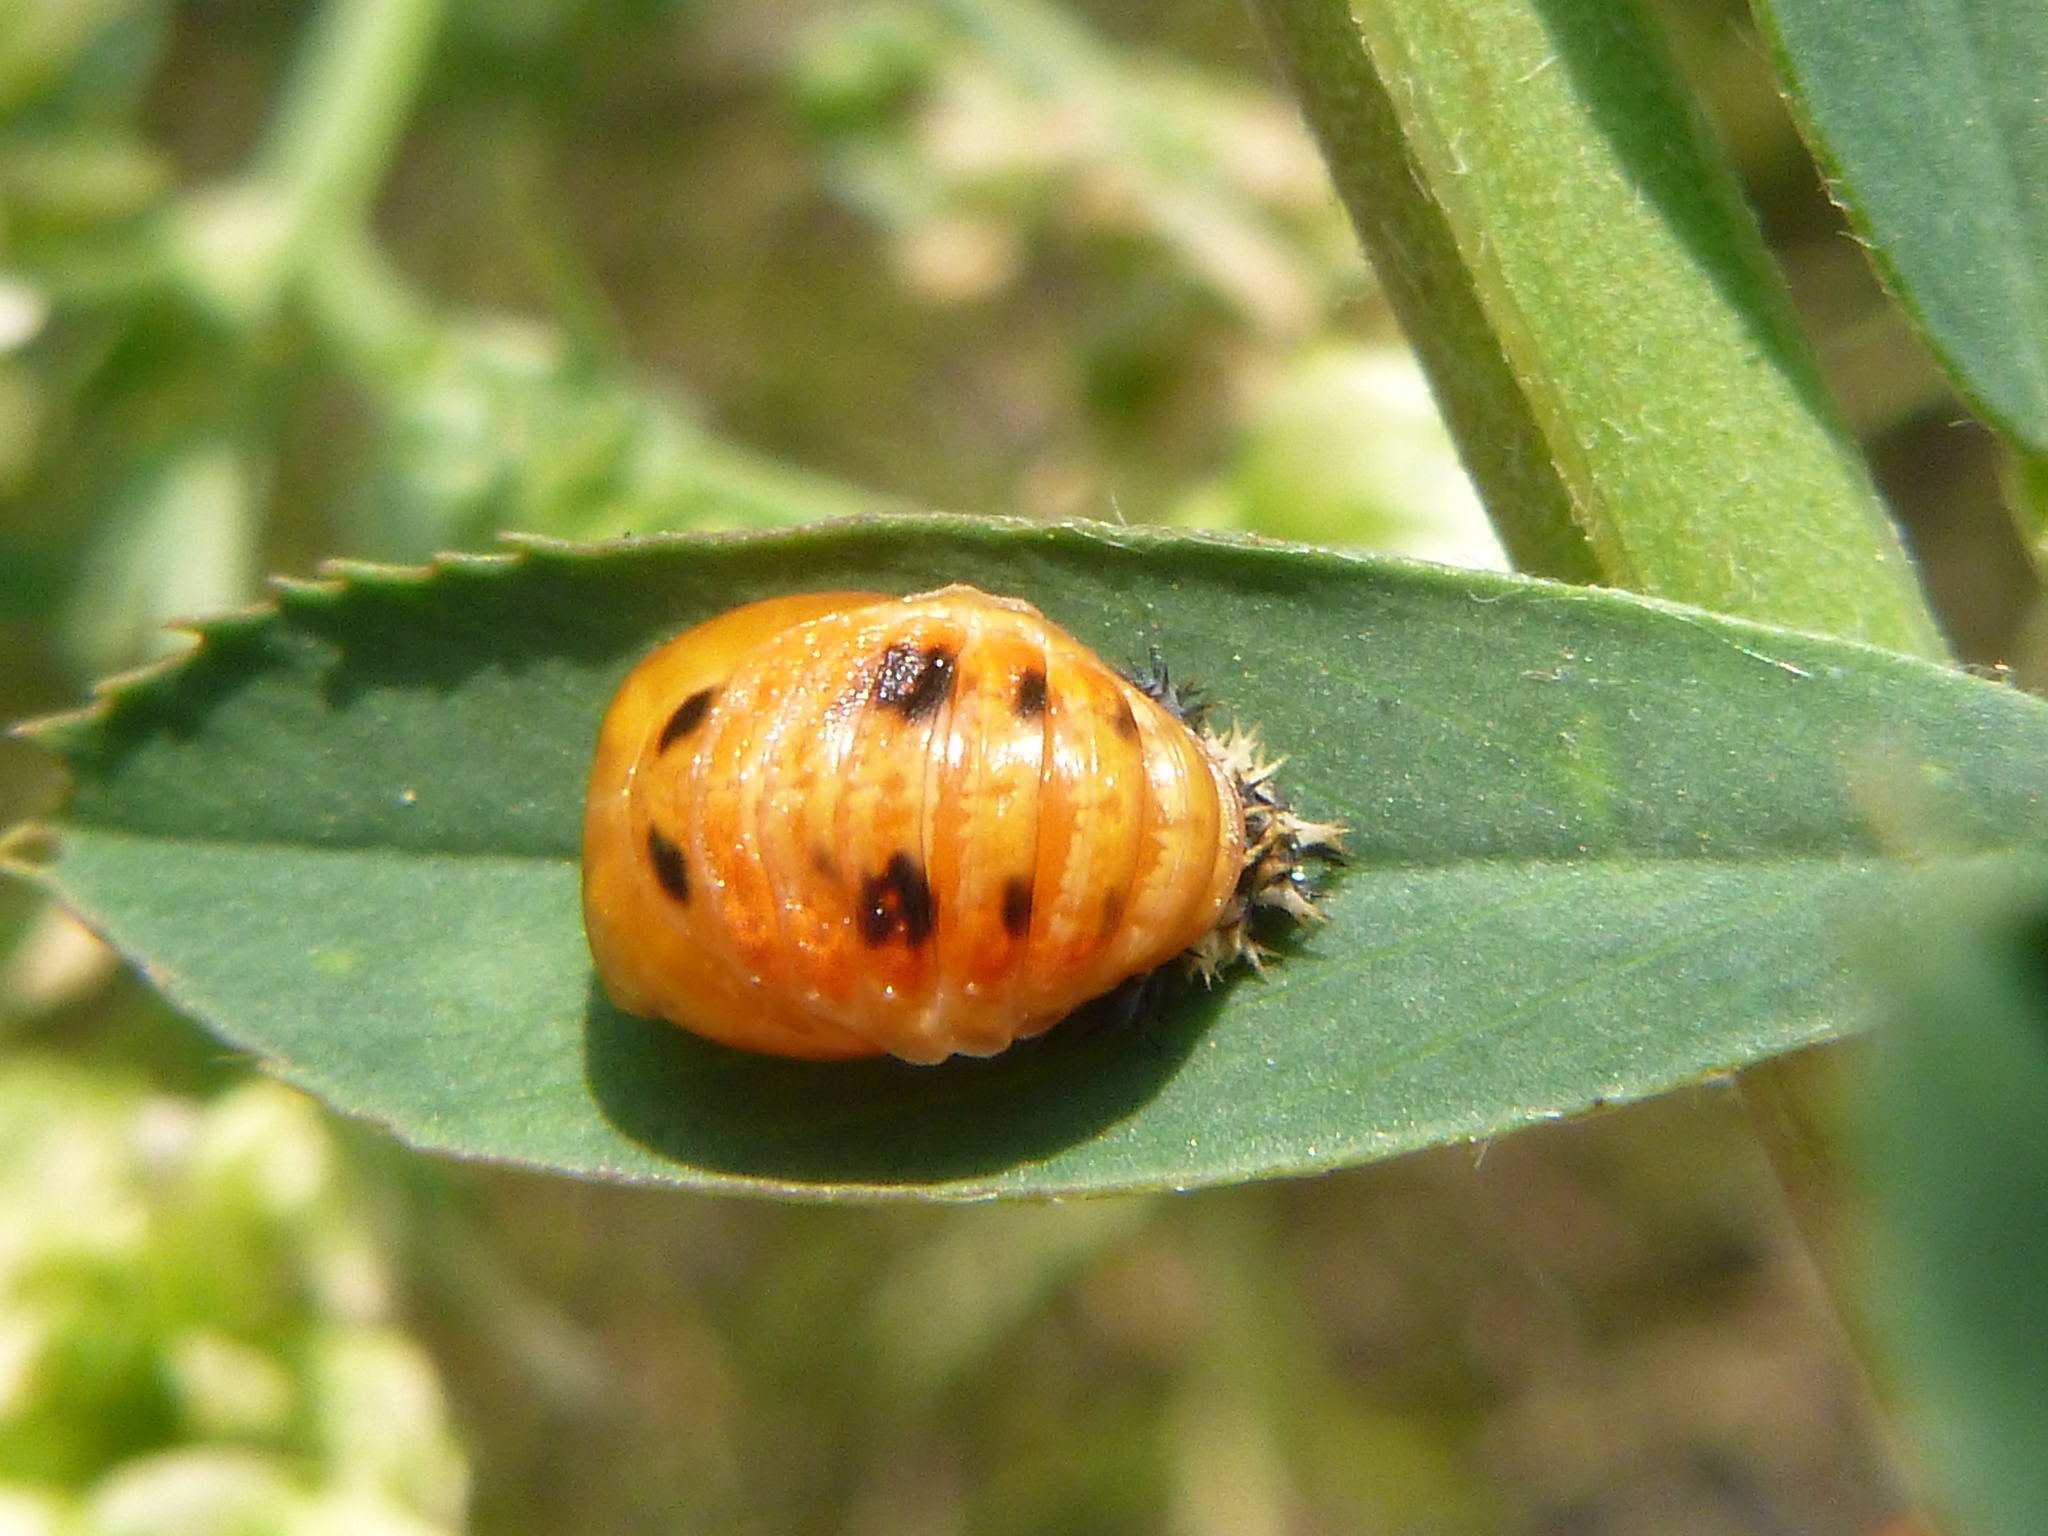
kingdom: Animalia
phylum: Arthropoda
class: Insecta
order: Coleoptera
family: Coccinellidae
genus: Harmonia
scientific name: Harmonia axyridis
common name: Harlequin ladybird
